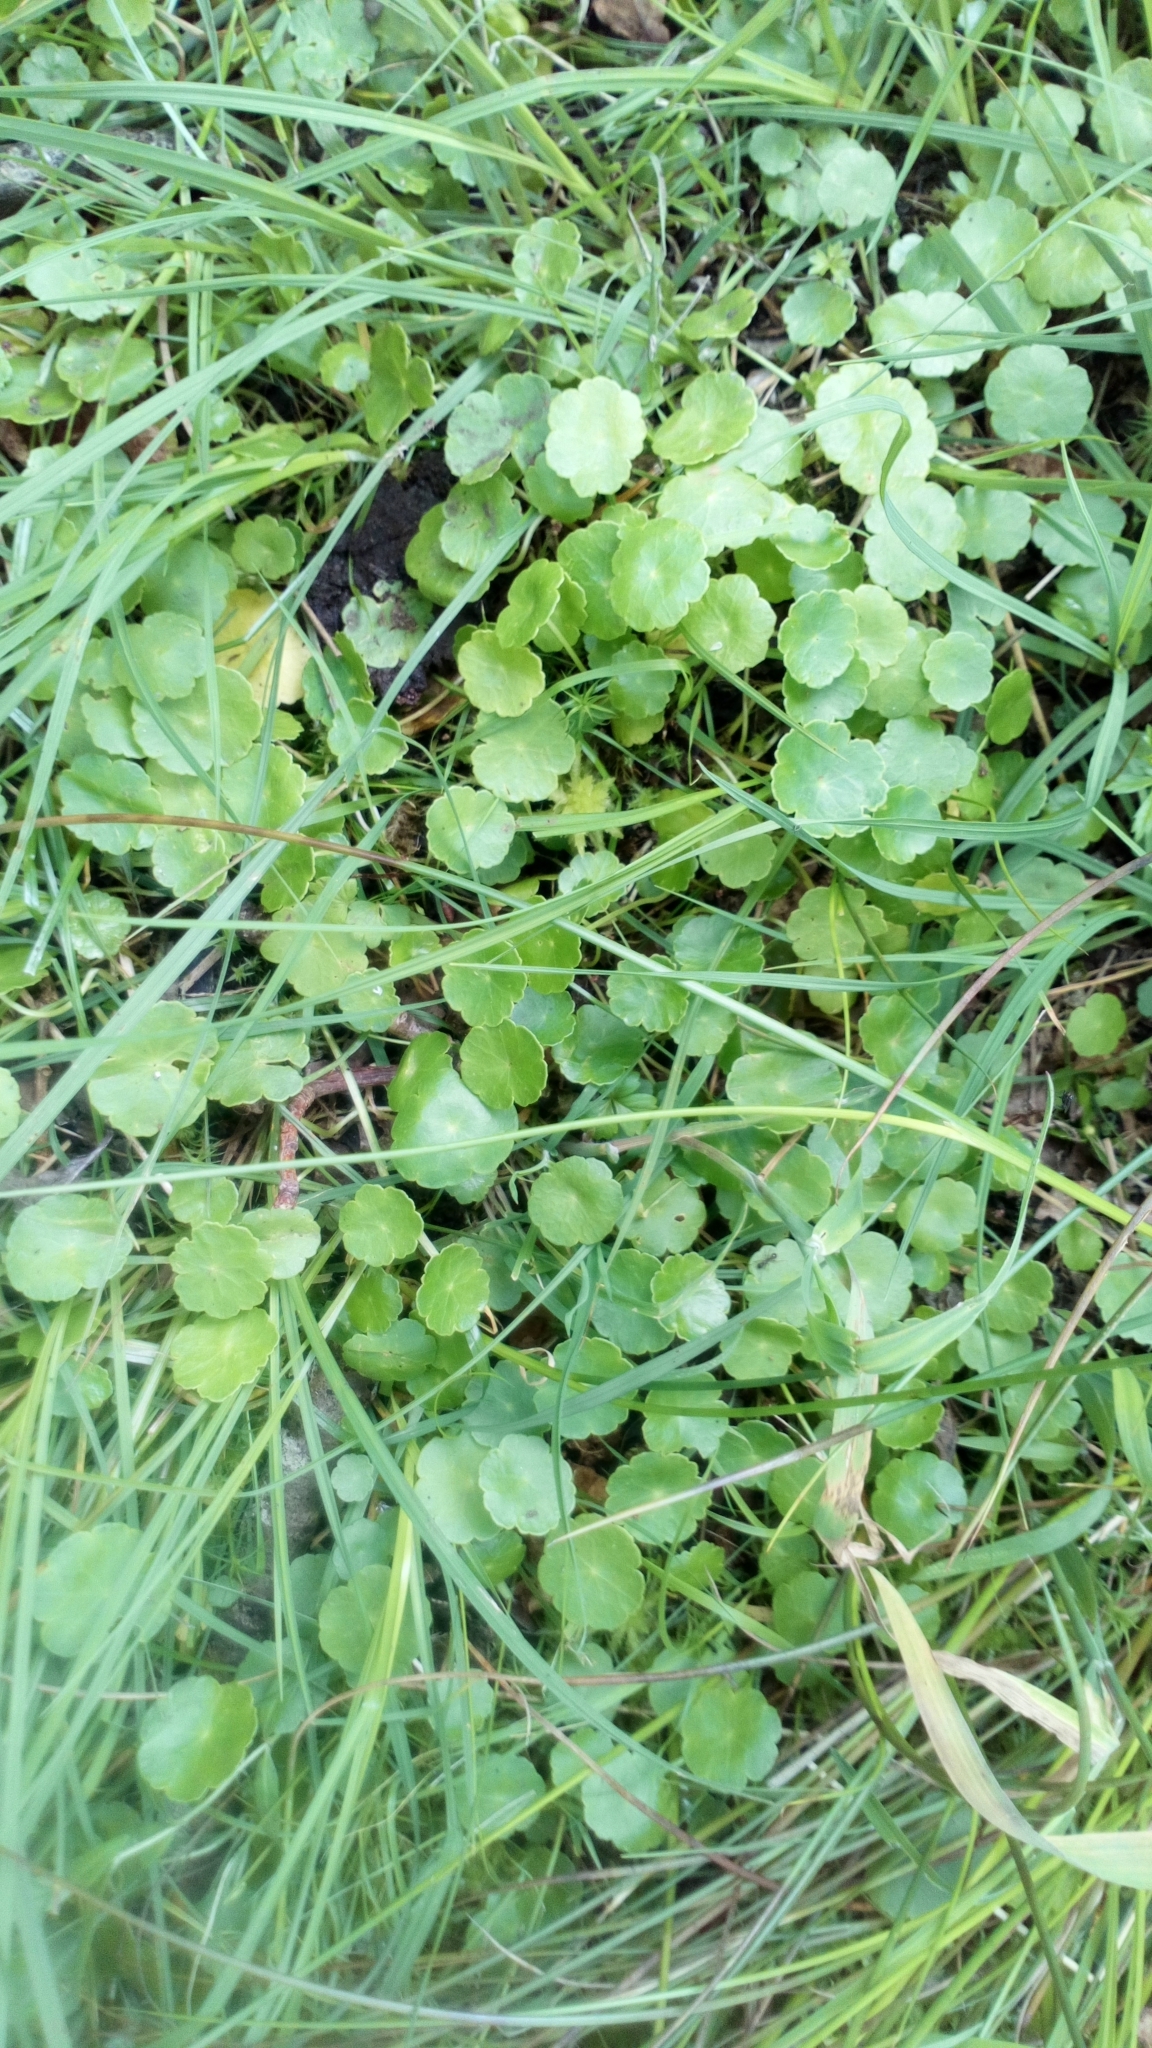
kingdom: Plantae
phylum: Tracheophyta
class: Magnoliopsida
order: Apiales
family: Araliaceae
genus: Hydrocotyle
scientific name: Hydrocotyle vulgaris
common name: Marsh pennywort
